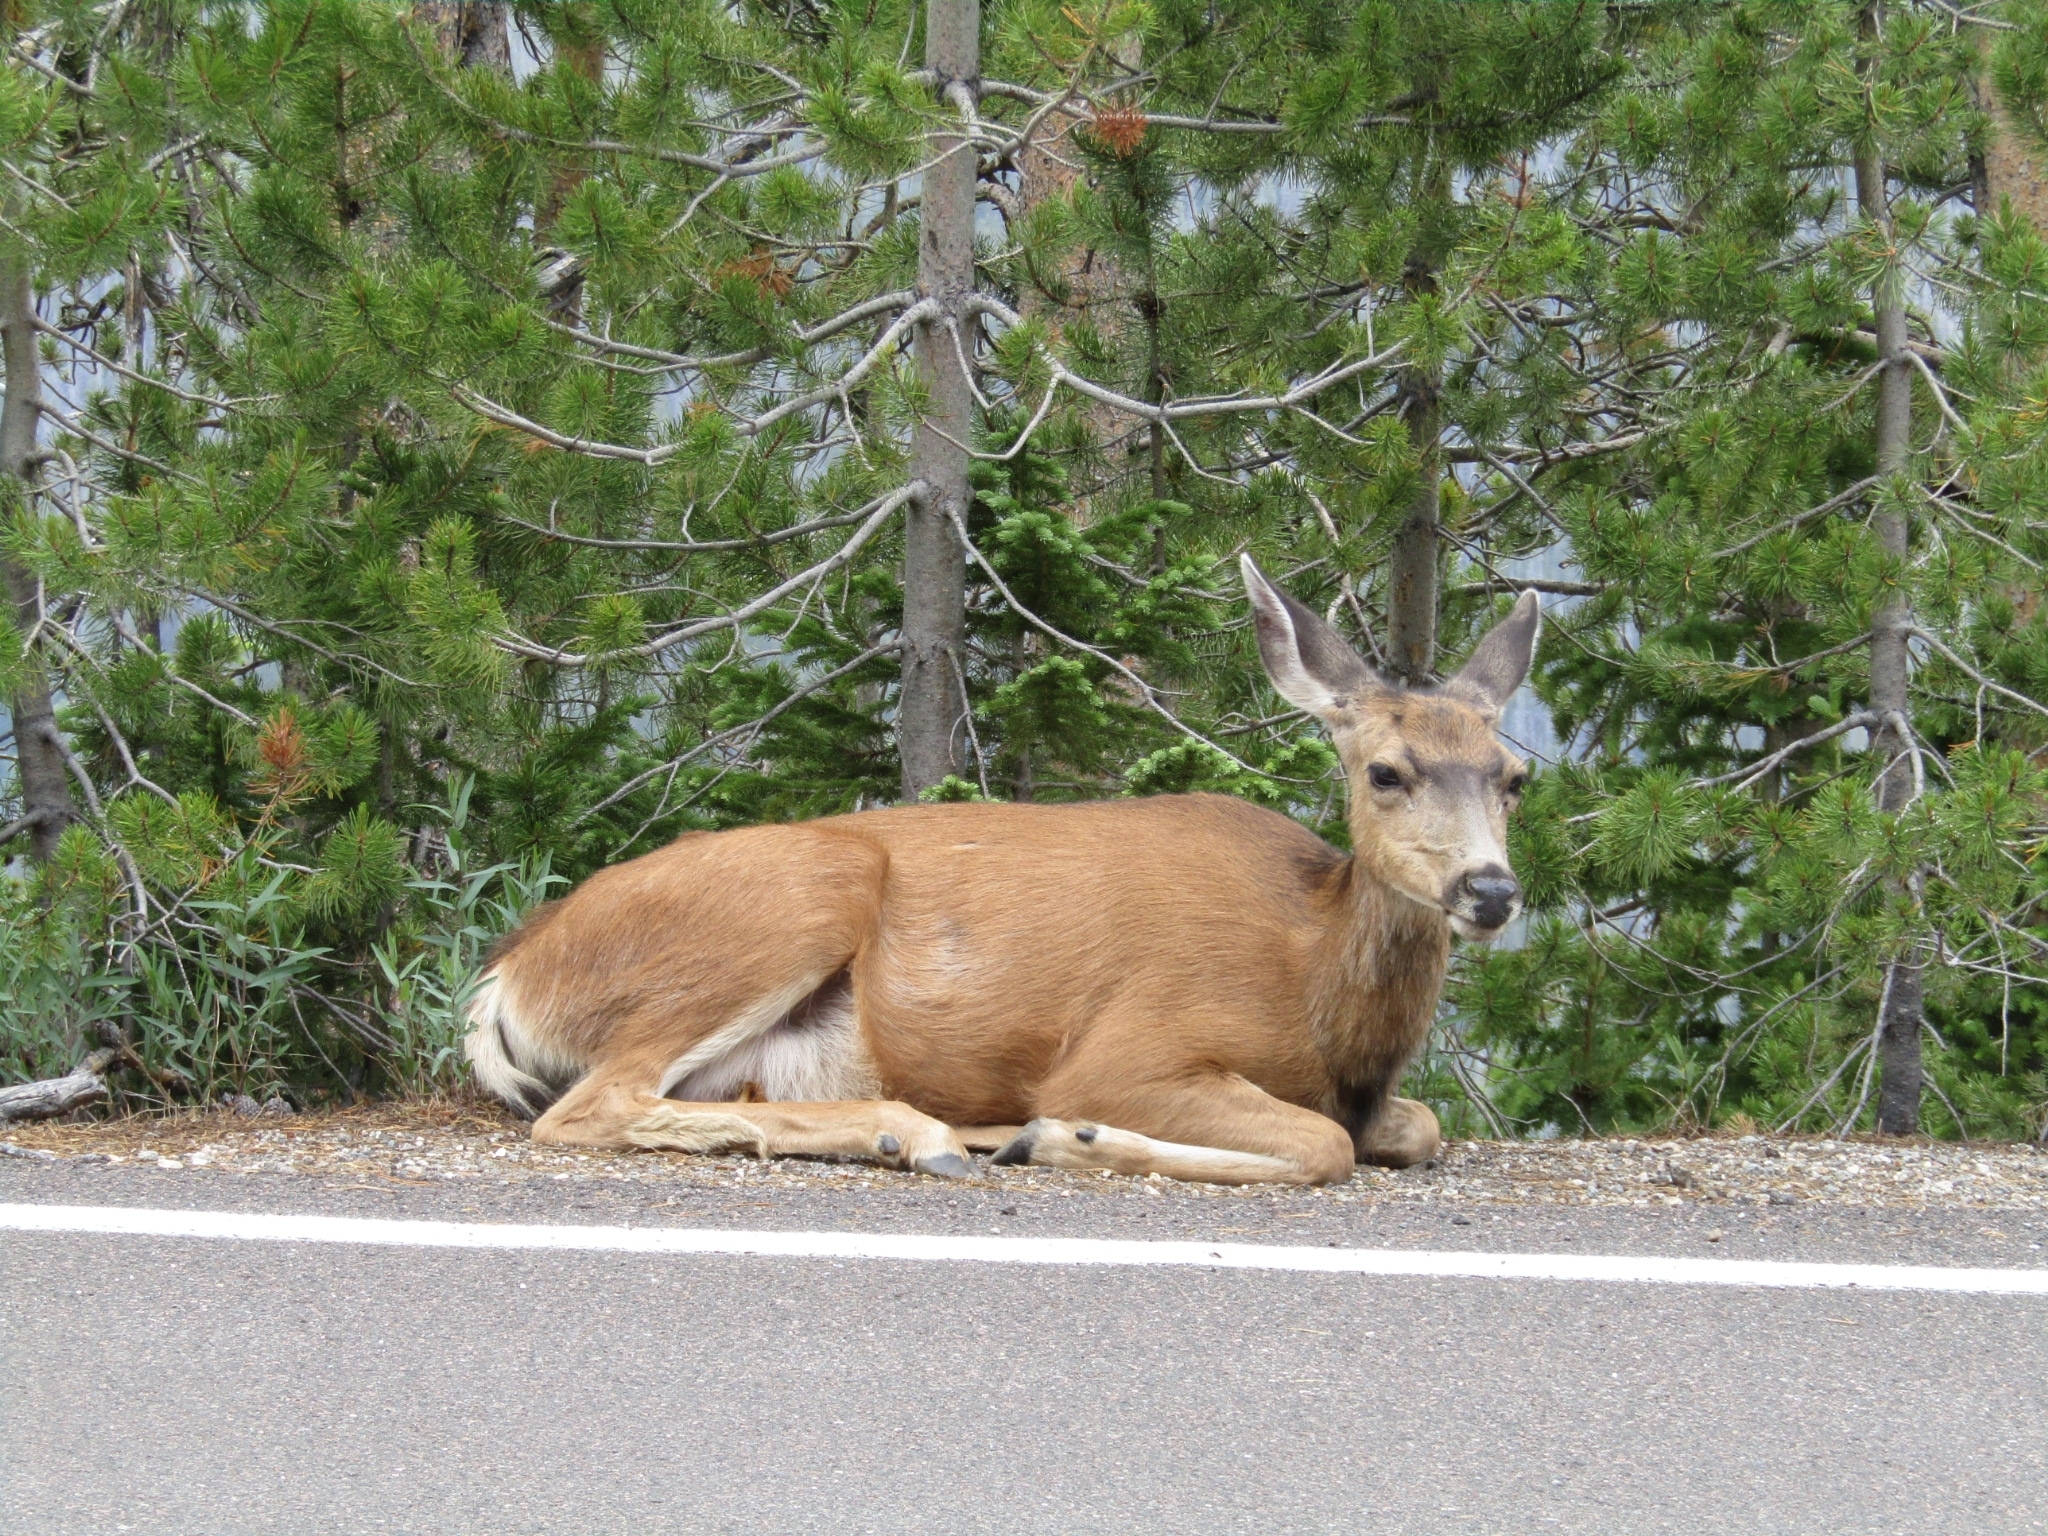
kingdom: Animalia
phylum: Chordata
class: Mammalia
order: Artiodactyla
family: Cervidae
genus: Odocoileus
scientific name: Odocoileus hemionus
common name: Mule deer
